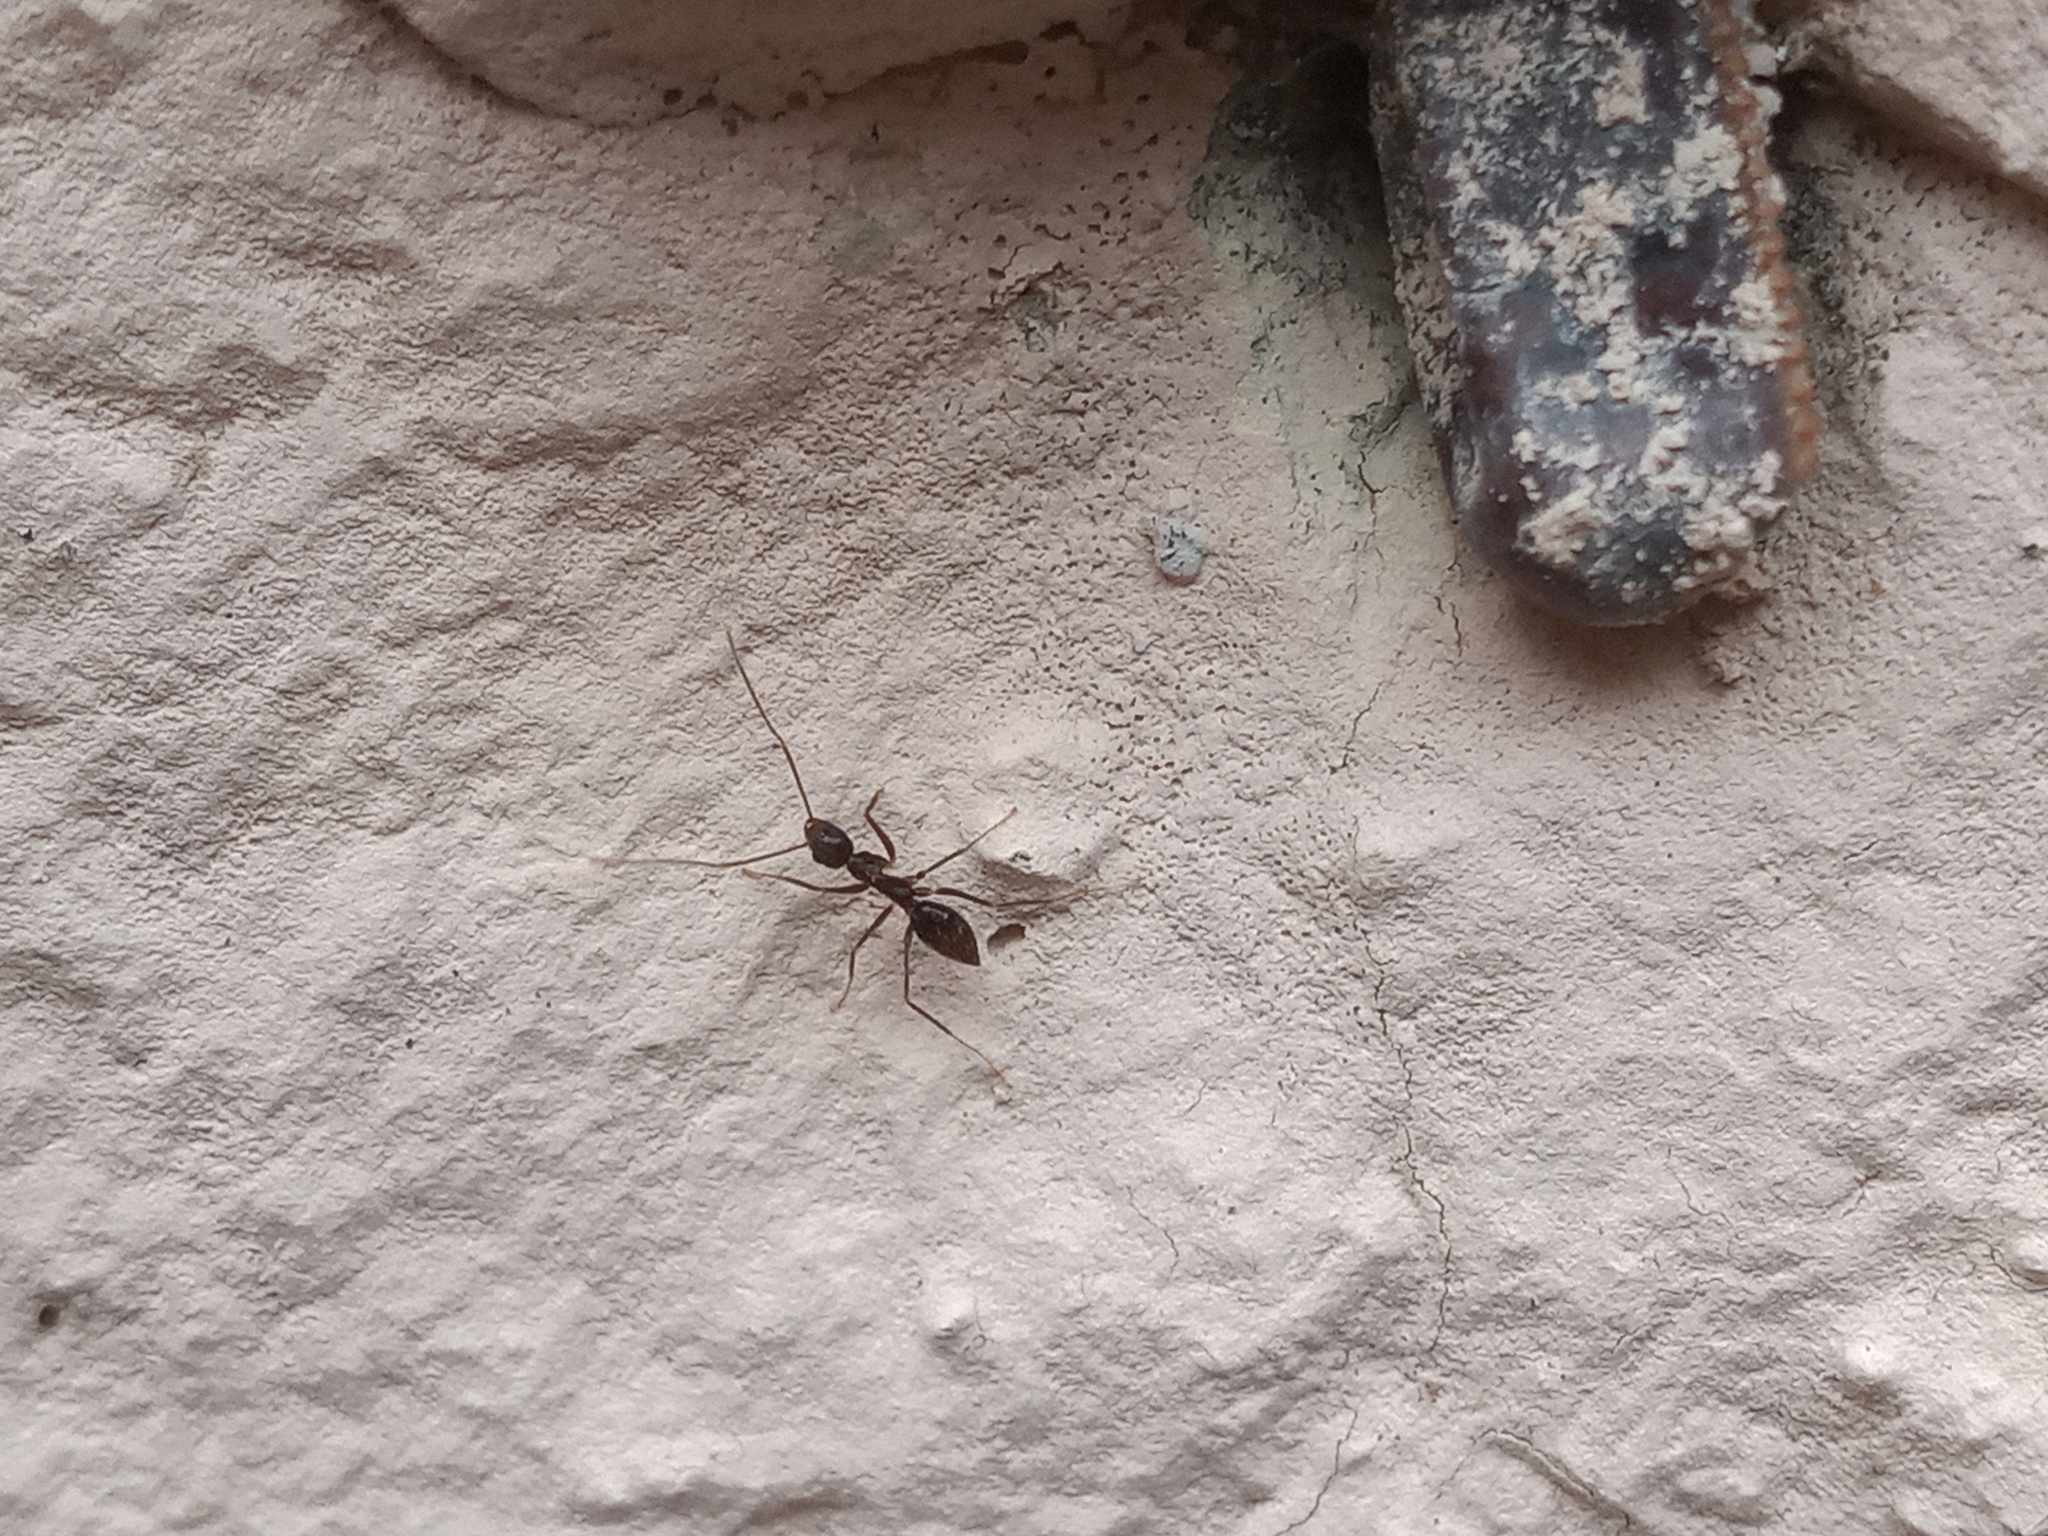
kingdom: Animalia
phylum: Arthropoda
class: Insecta
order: Hymenoptera
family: Formicidae
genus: Paratrechina
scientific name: Paratrechina longicornis
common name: Longhorned crazy ant
